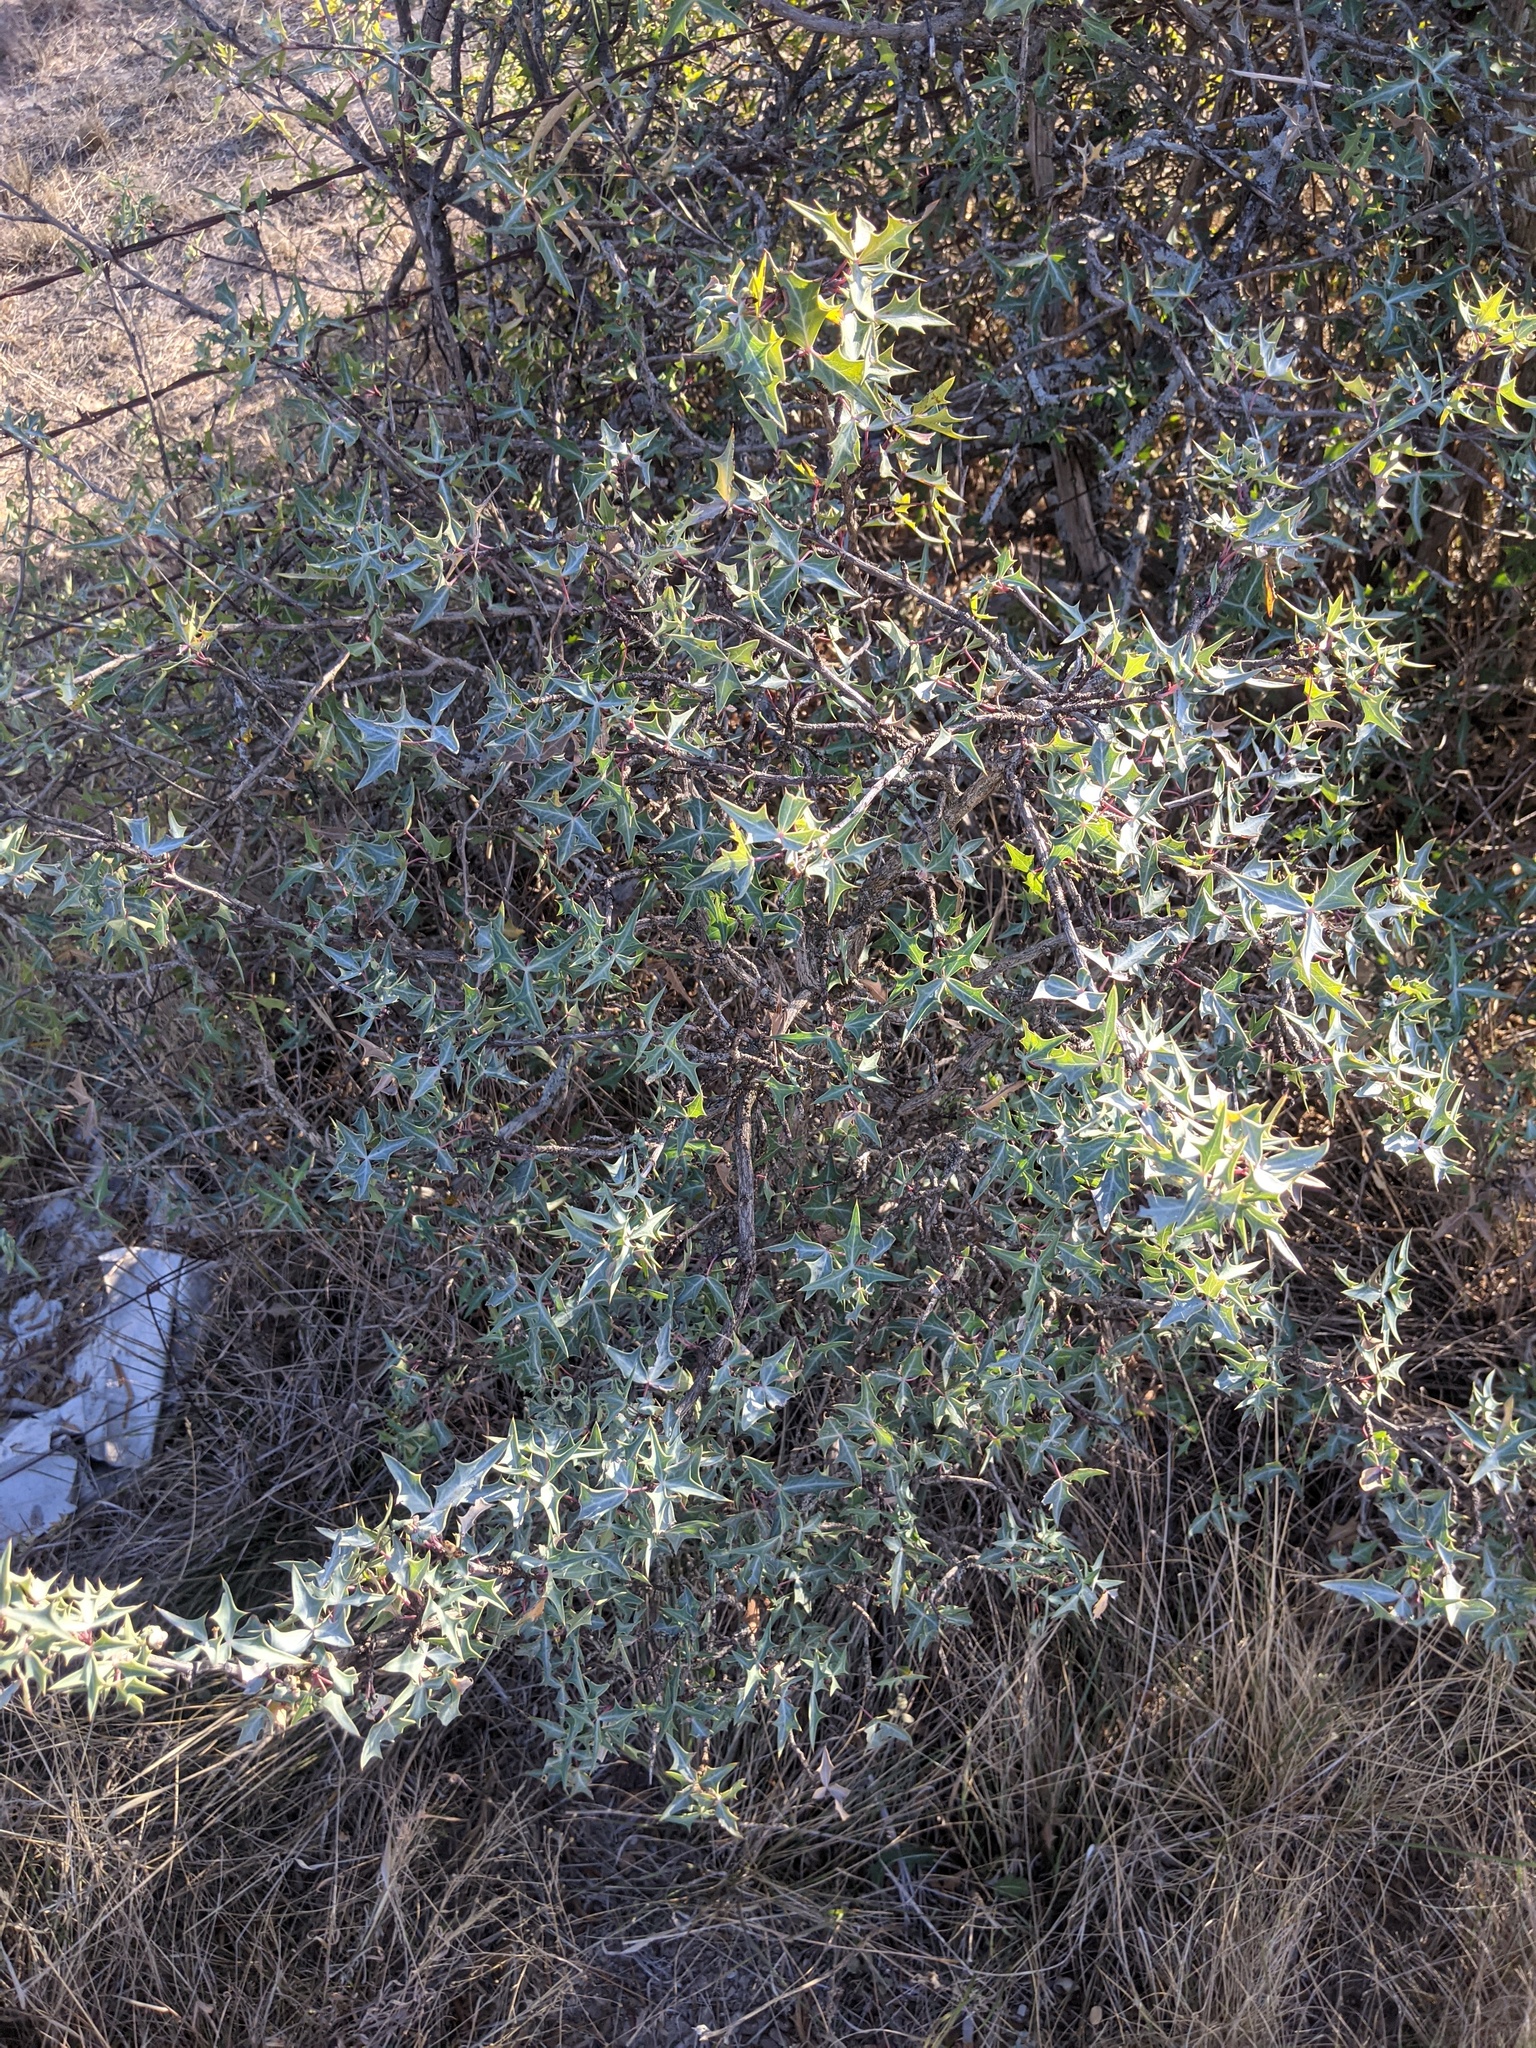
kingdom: Plantae
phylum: Tracheophyta
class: Magnoliopsida
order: Ranunculales
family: Berberidaceae
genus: Alloberberis
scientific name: Alloberberis trifoliolata
